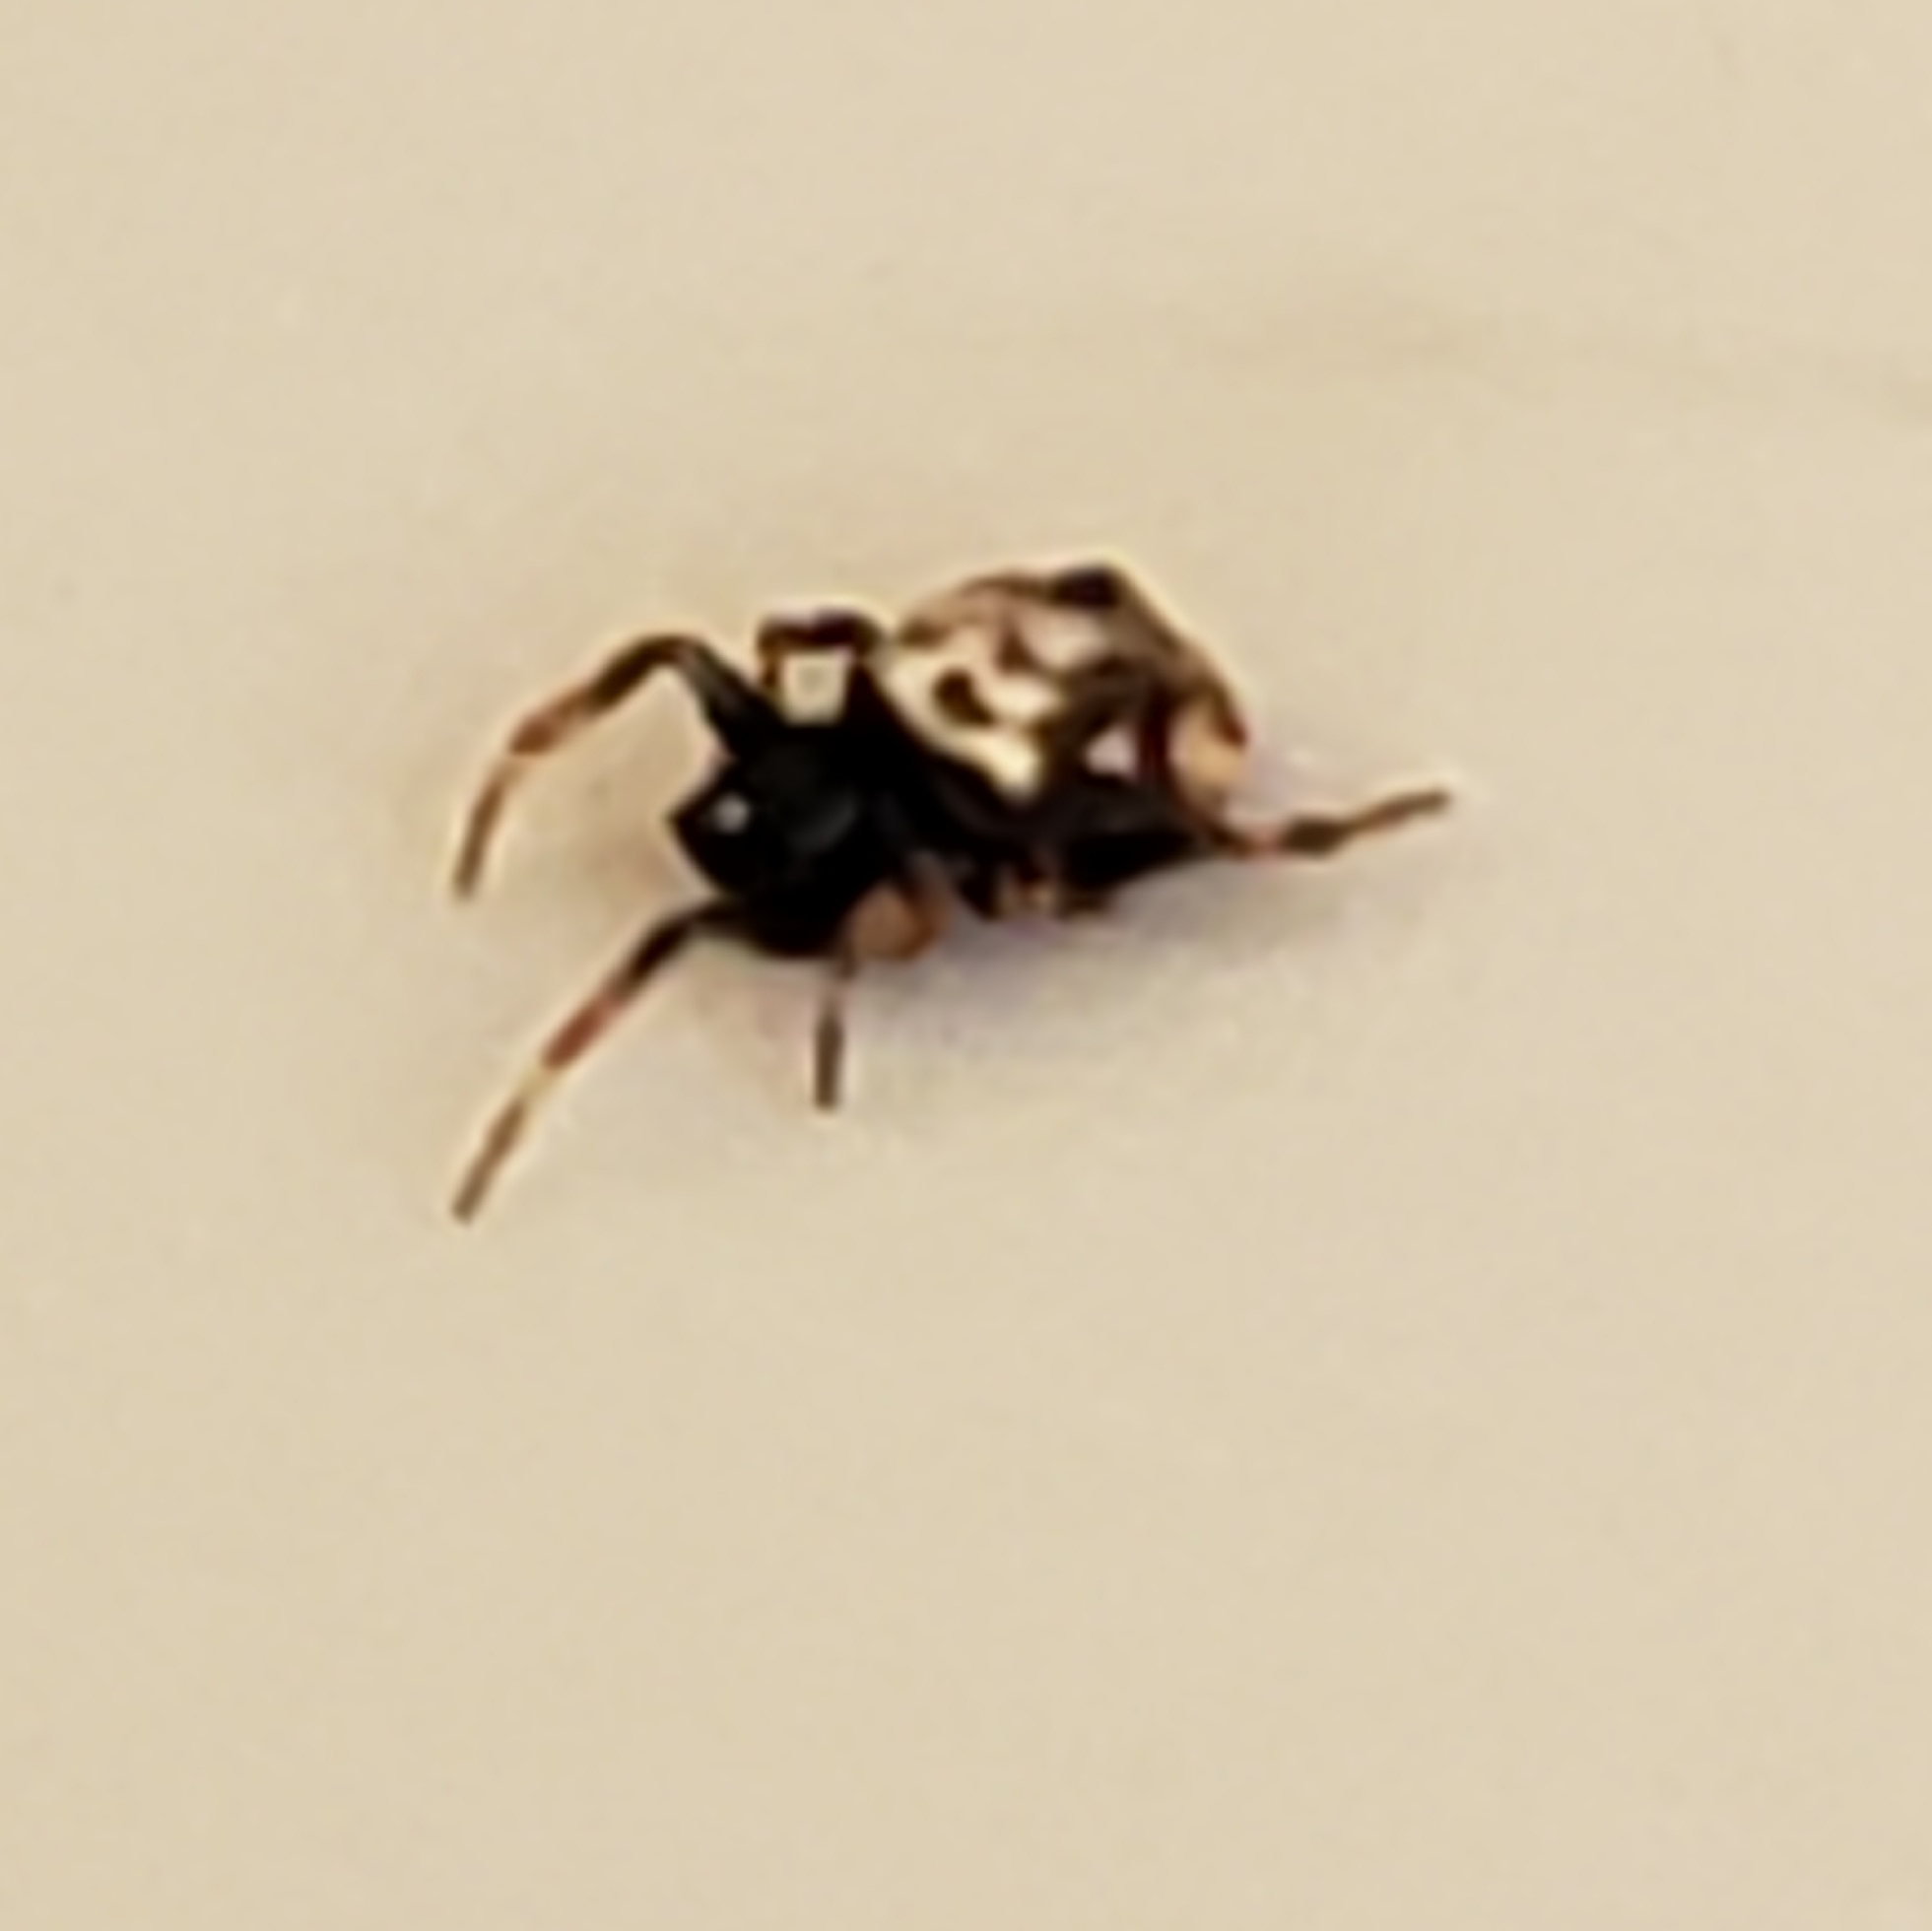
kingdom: Animalia
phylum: Arthropoda
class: Arachnida
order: Araneae
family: Araneidae
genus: Gasteracantha
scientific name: Gasteracantha cancriformis
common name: Orb weavers
